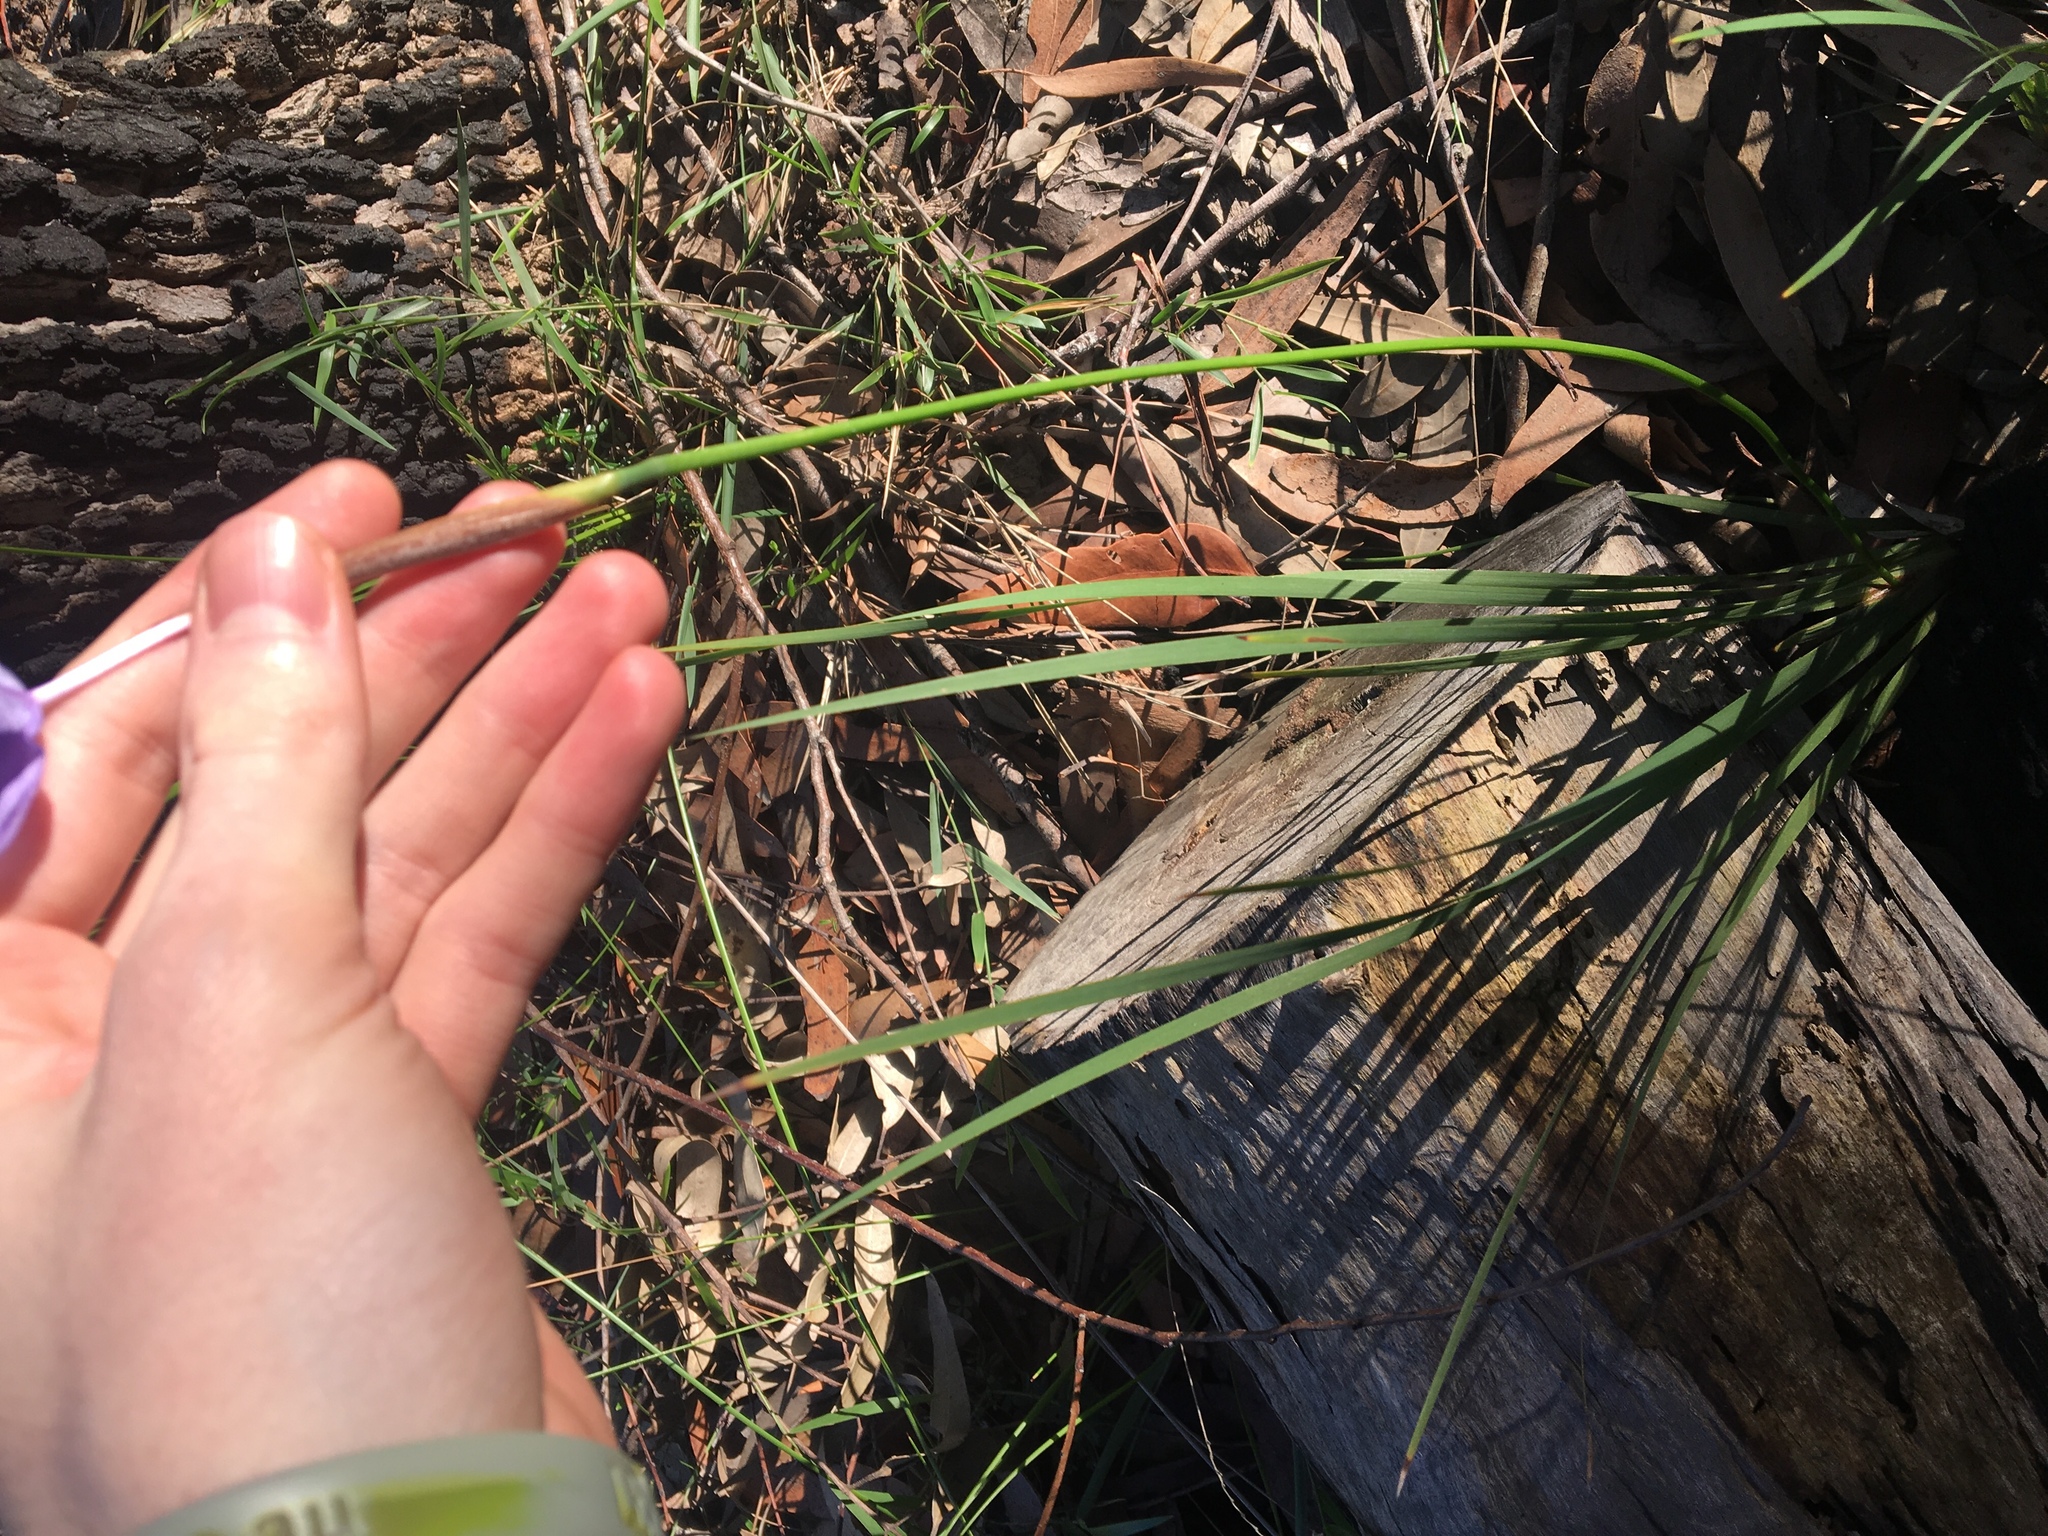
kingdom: Plantae
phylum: Tracheophyta
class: Liliopsida
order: Asparagales
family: Iridaceae
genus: Patersonia
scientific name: Patersonia glabrata
